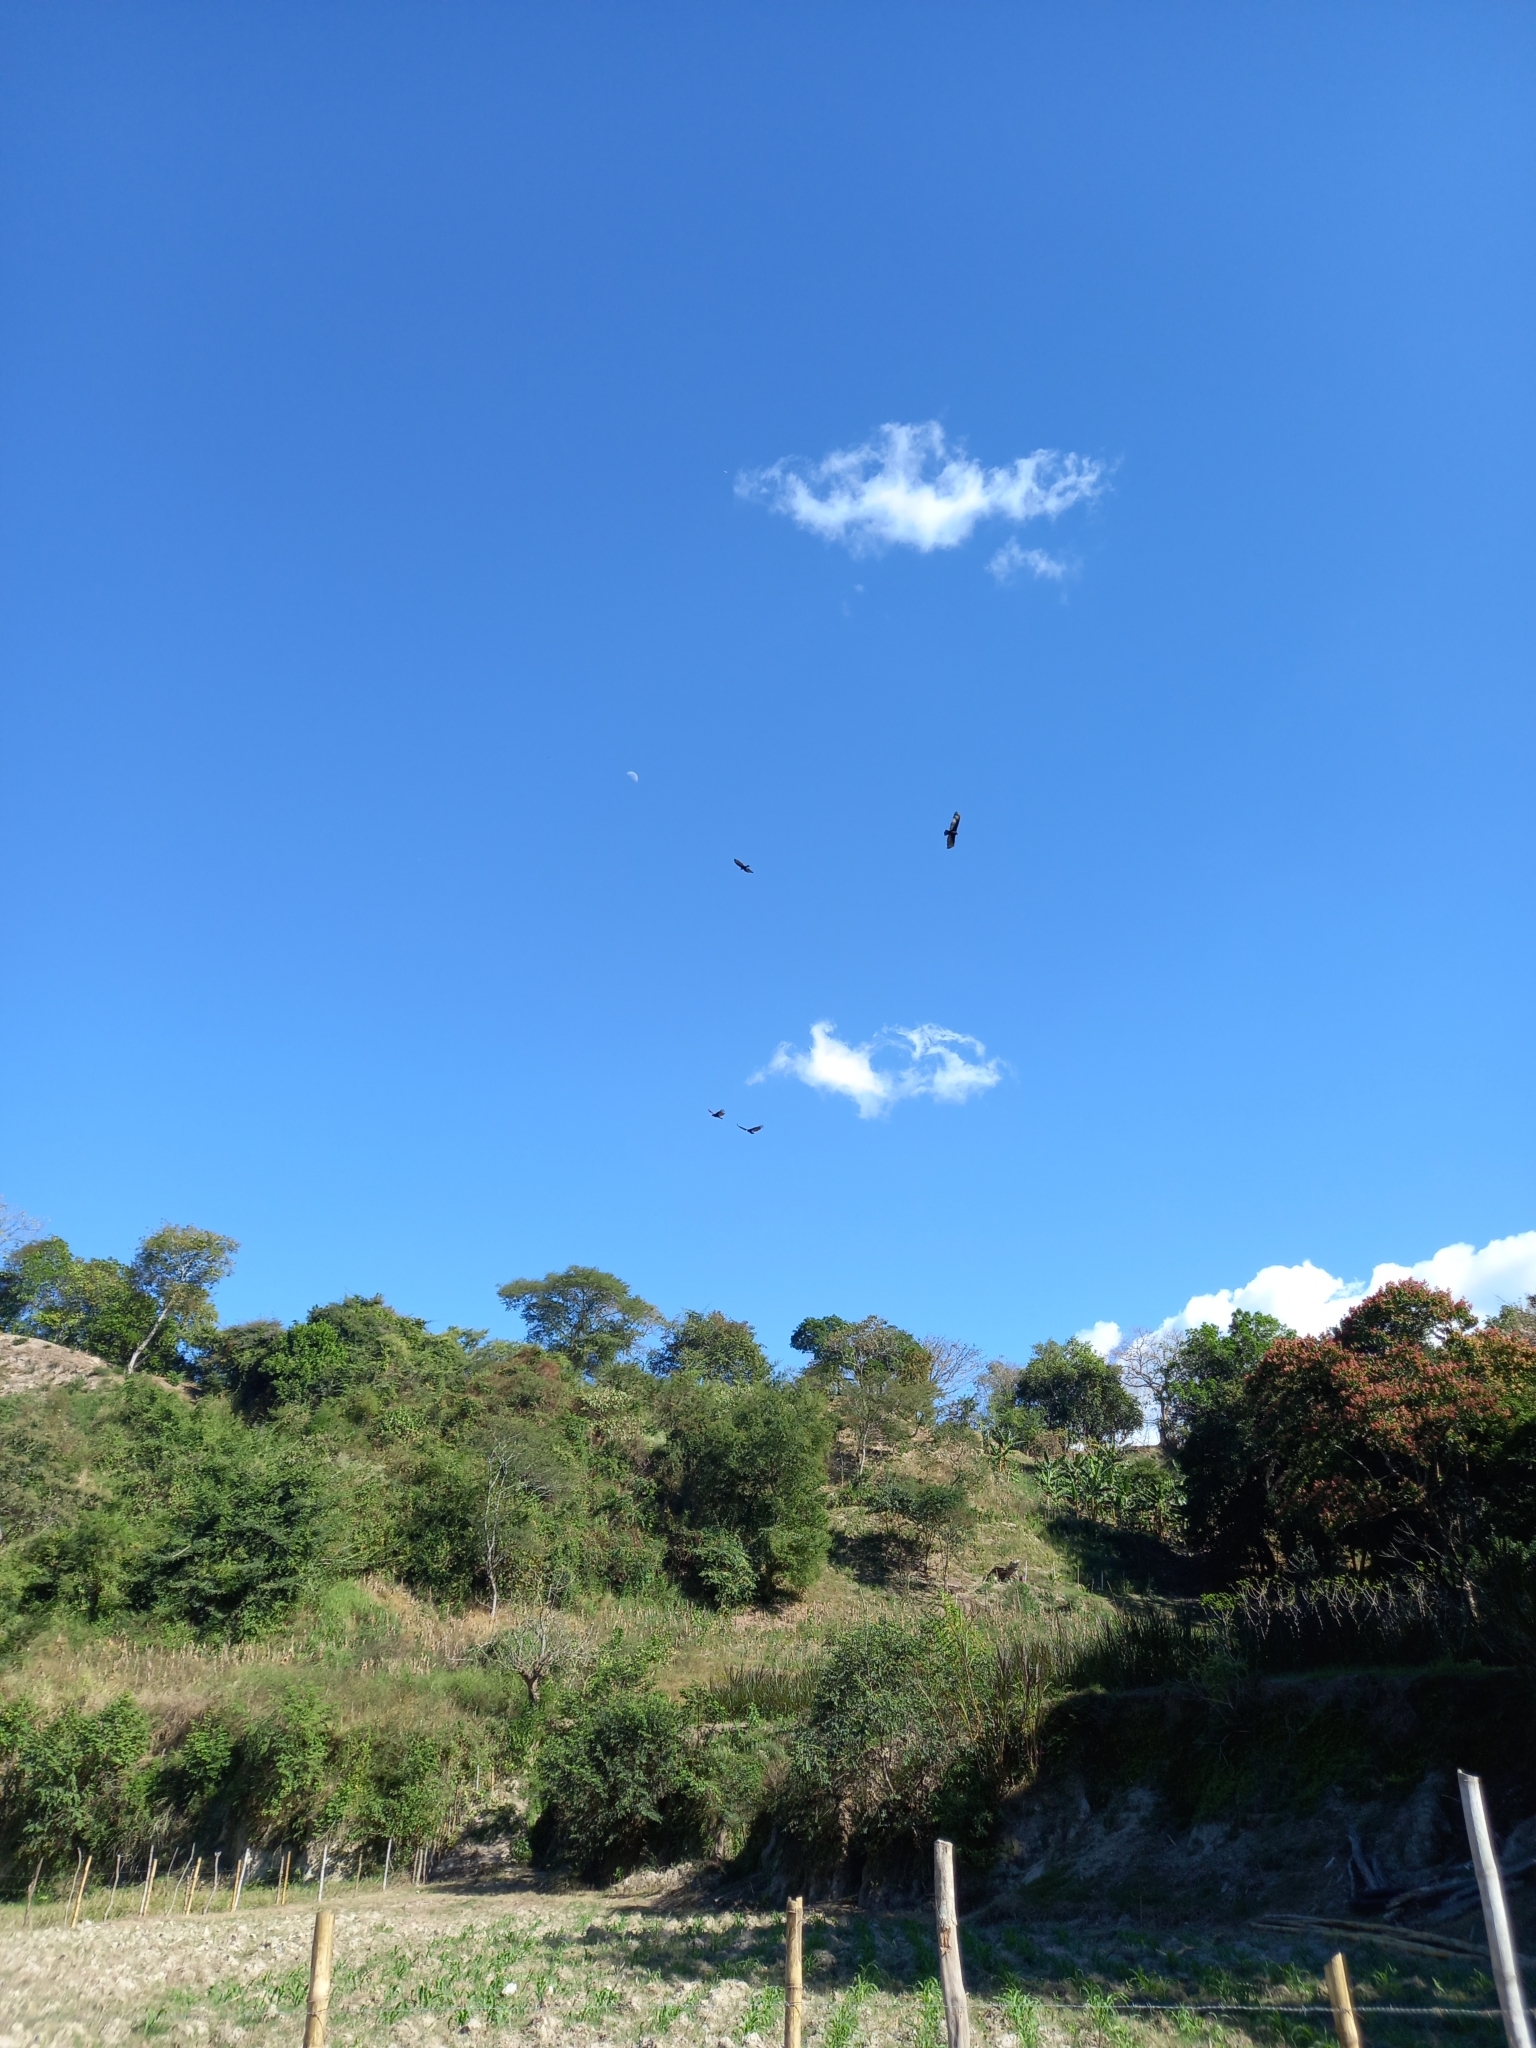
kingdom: Animalia
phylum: Chordata
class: Aves
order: Accipitriformes
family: Cathartidae
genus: Cathartes
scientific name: Cathartes aura
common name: Turkey vulture
